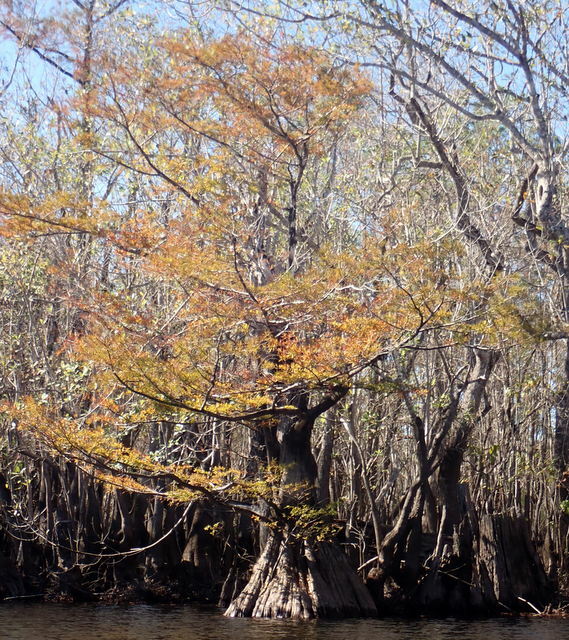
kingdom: Plantae
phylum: Tracheophyta
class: Pinopsida
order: Pinales
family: Cupressaceae
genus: Taxodium
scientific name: Taxodium distichum
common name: Bald cypress
